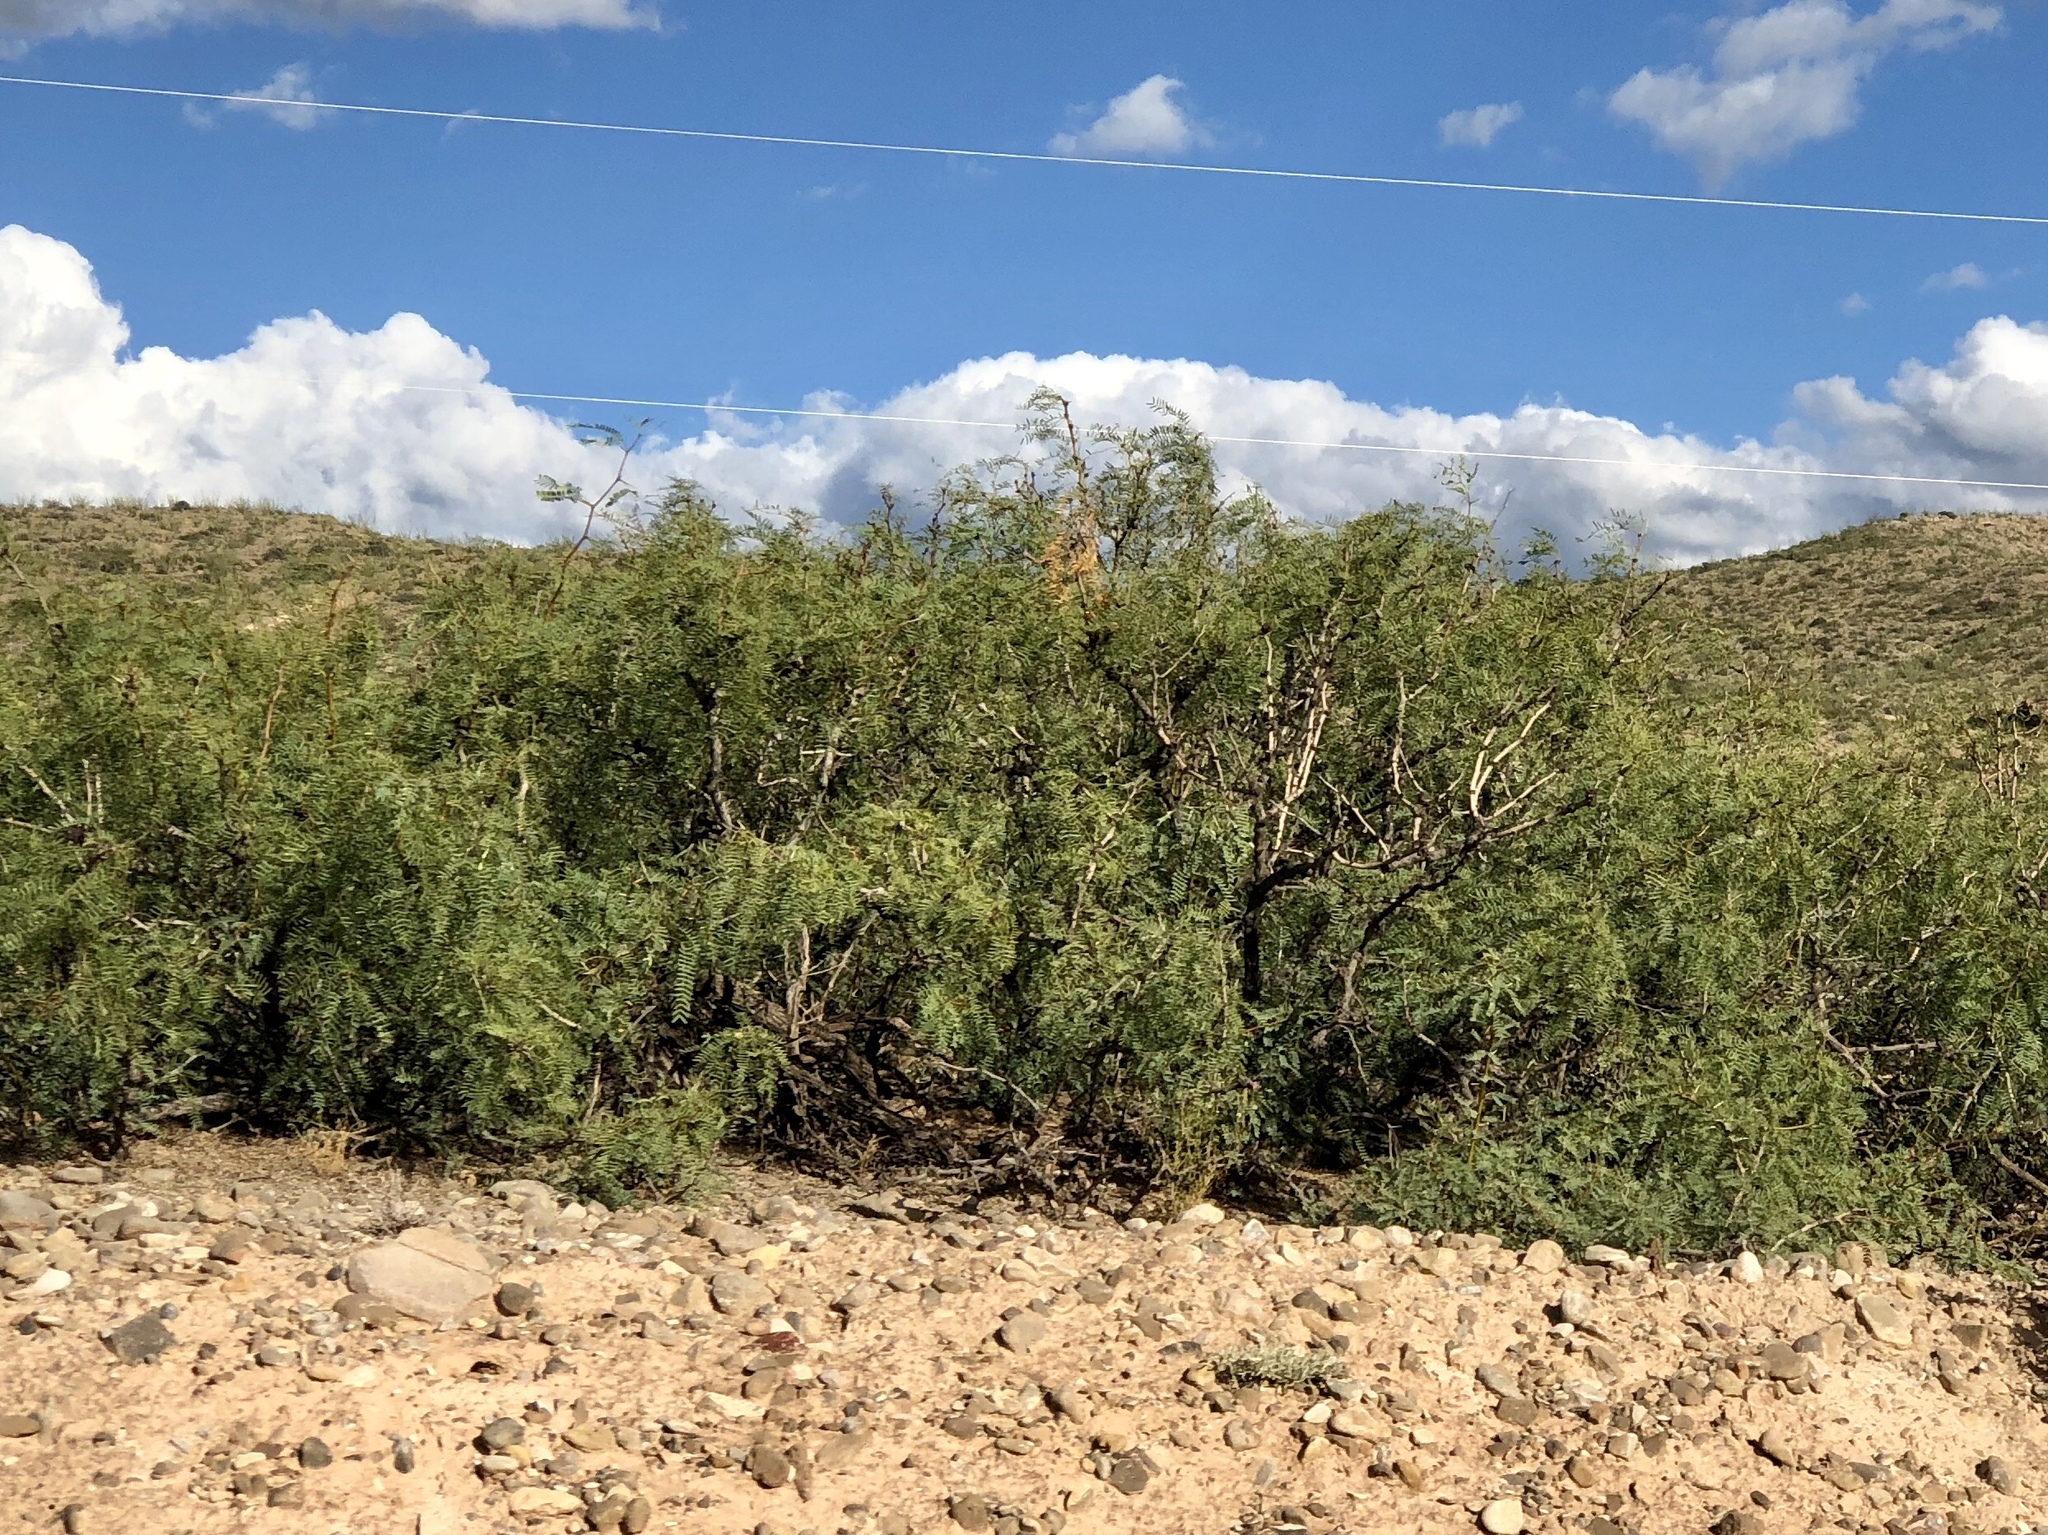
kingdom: Plantae
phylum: Tracheophyta
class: Magnoliopsida
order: Fabales
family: Fabaceae
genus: Prosopis
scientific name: Prosopis glandulosa
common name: Honey mesquite
